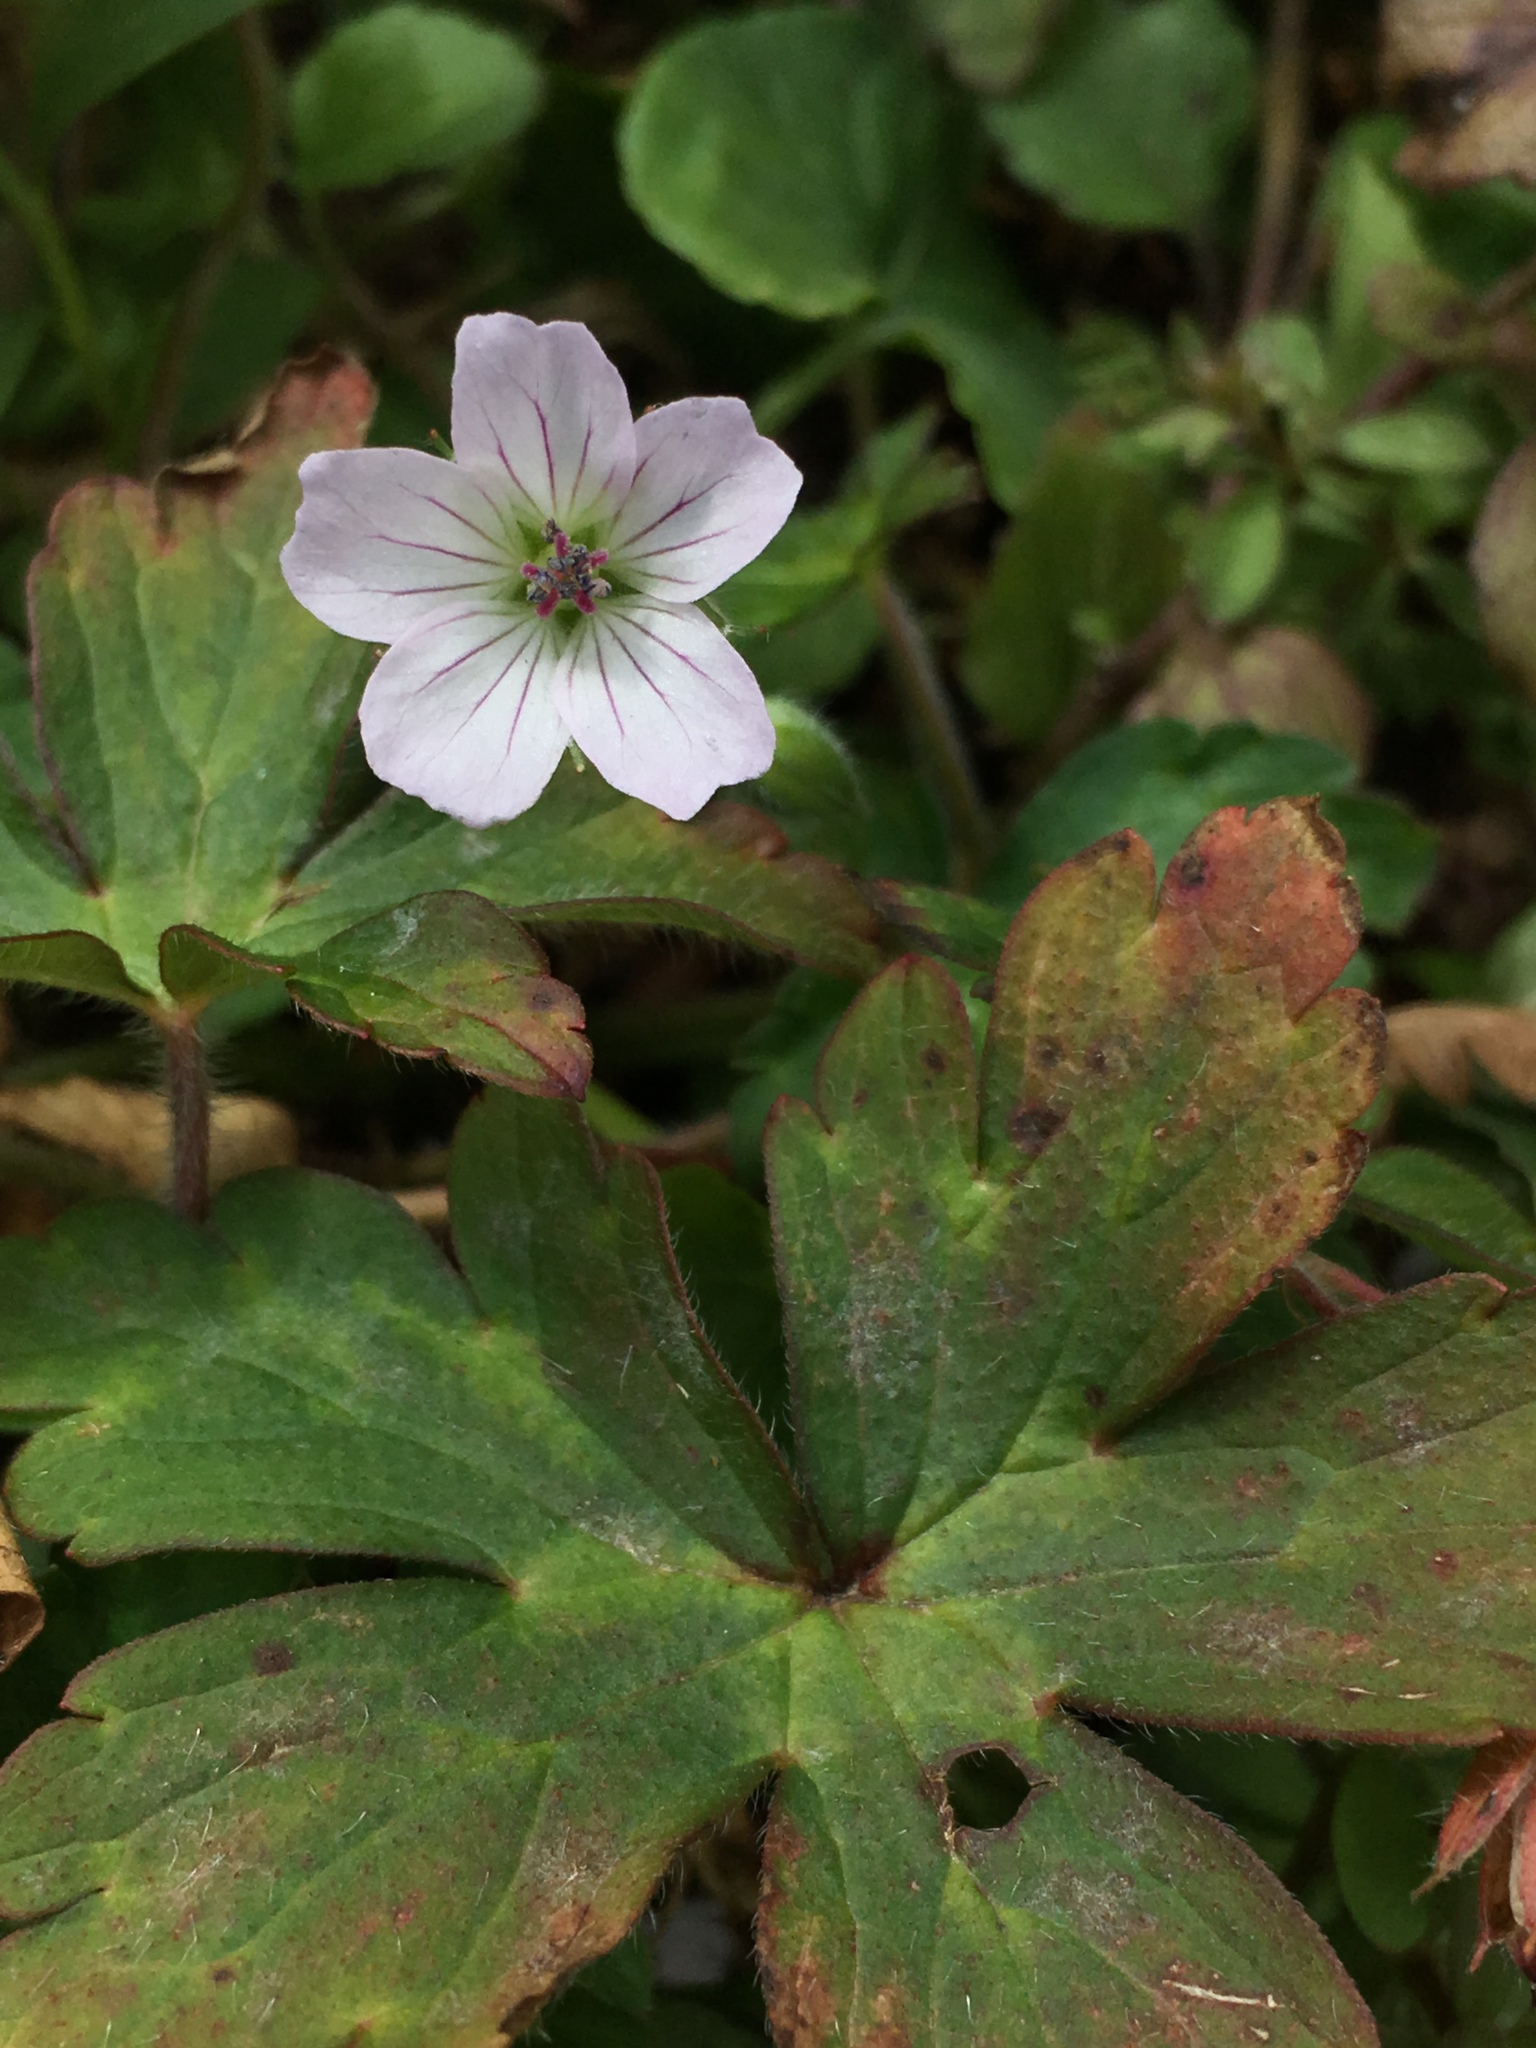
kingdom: Plantae
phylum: Tracheophyta
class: Magnoliopsida
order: Geraniales
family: Geraniaceae
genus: Geranium
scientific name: Geranium nepalense
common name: Nepalese crane's-bill
